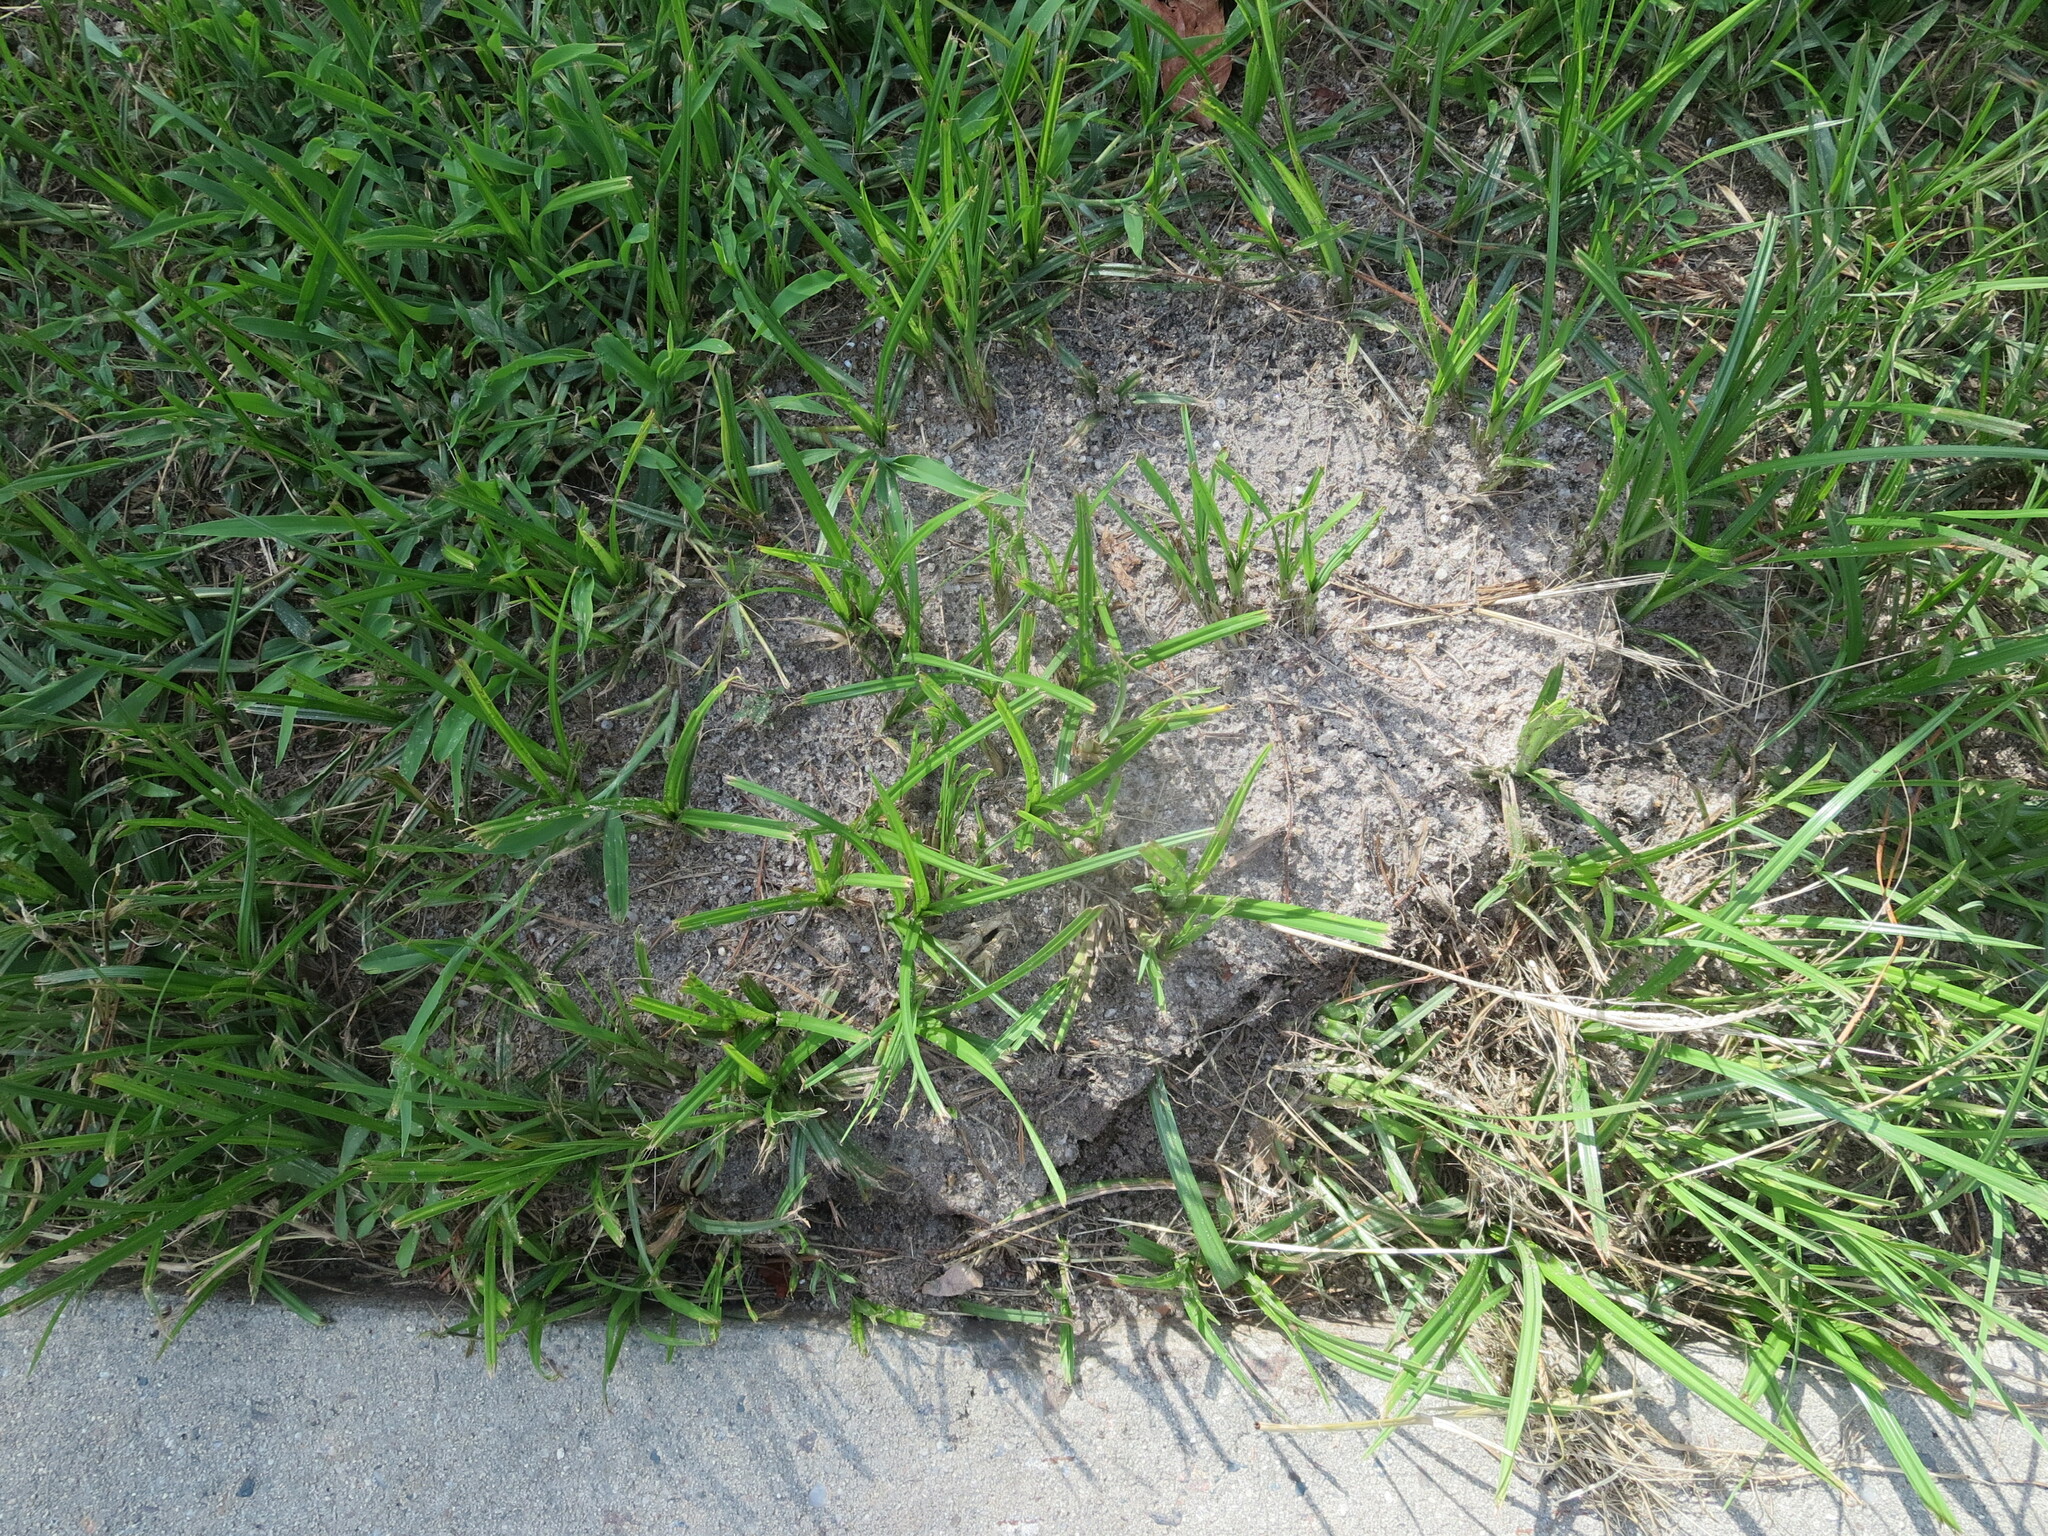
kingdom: Animalia
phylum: Arthropoda
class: Insecta
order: Hymenoptera
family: Formicidae
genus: Solenopsis
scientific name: Solenopsis invicta
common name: Red imported fire ant
